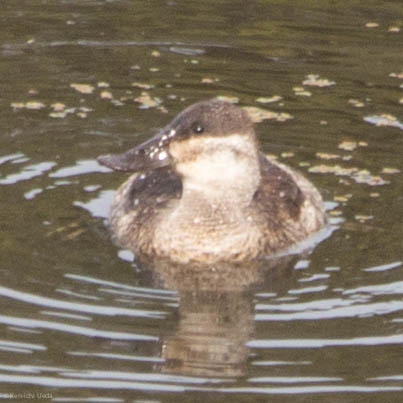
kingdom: Animalia
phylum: Chordata
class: Aves
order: Anseriformes
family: Anatidae
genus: Oxyura
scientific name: Oxyura jamaicensis
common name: Ruddy duck
